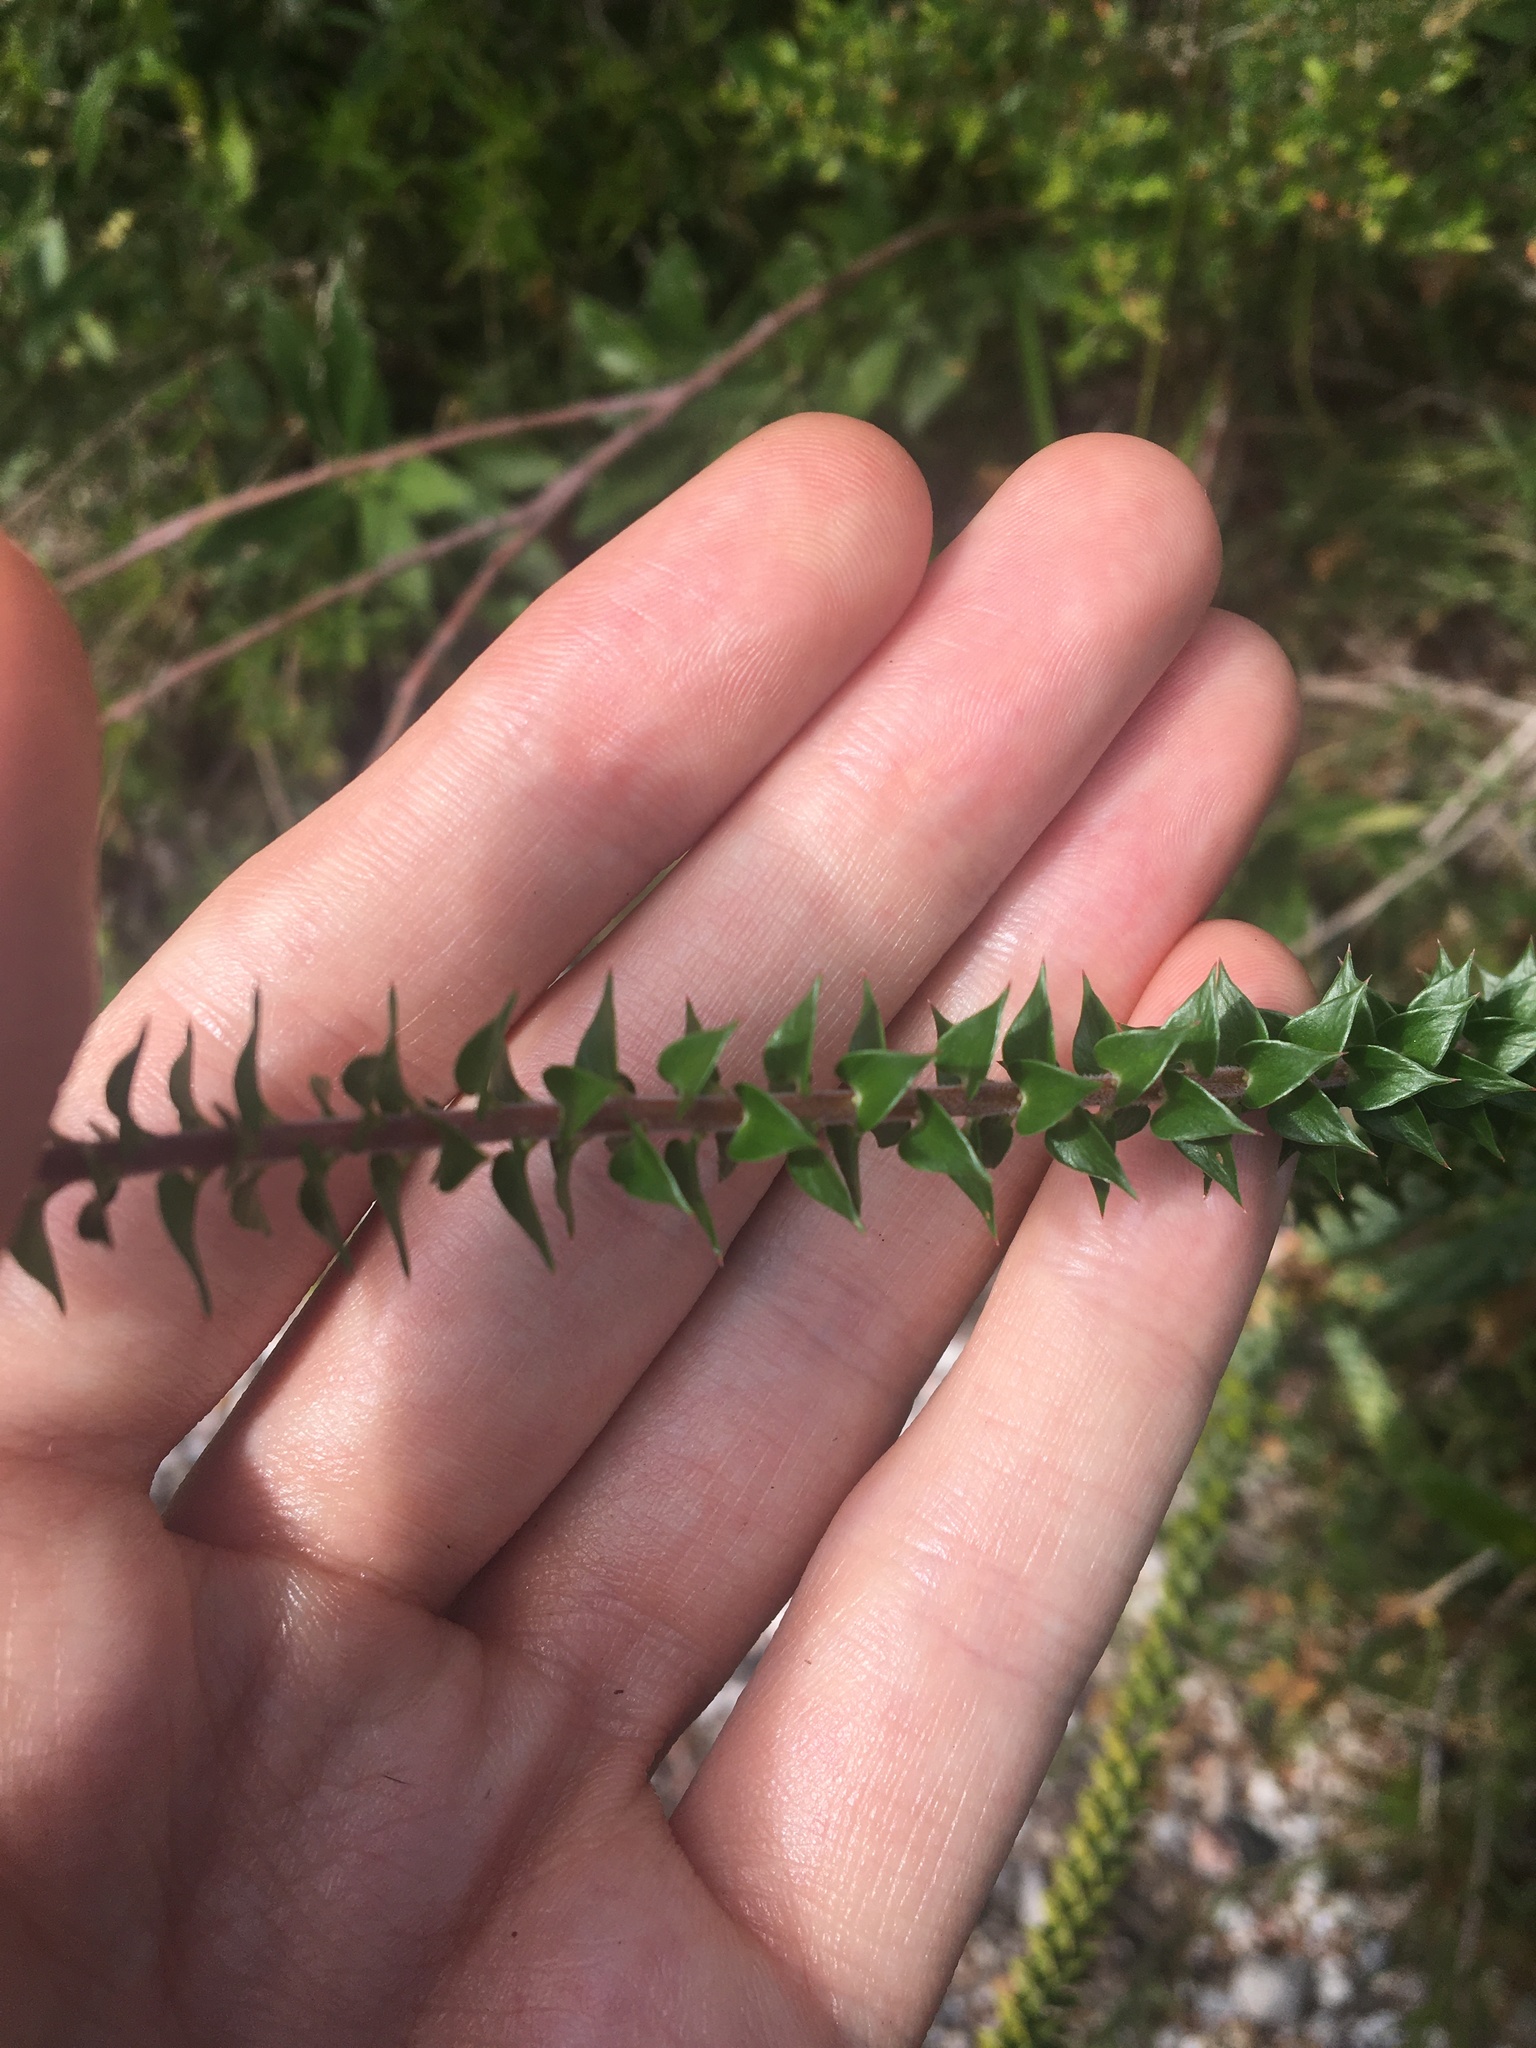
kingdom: Plantae
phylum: Tracheophyta
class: Magnoliopsida
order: Ericales
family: Ericaceae
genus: Epacris
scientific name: Epacris pulchella
